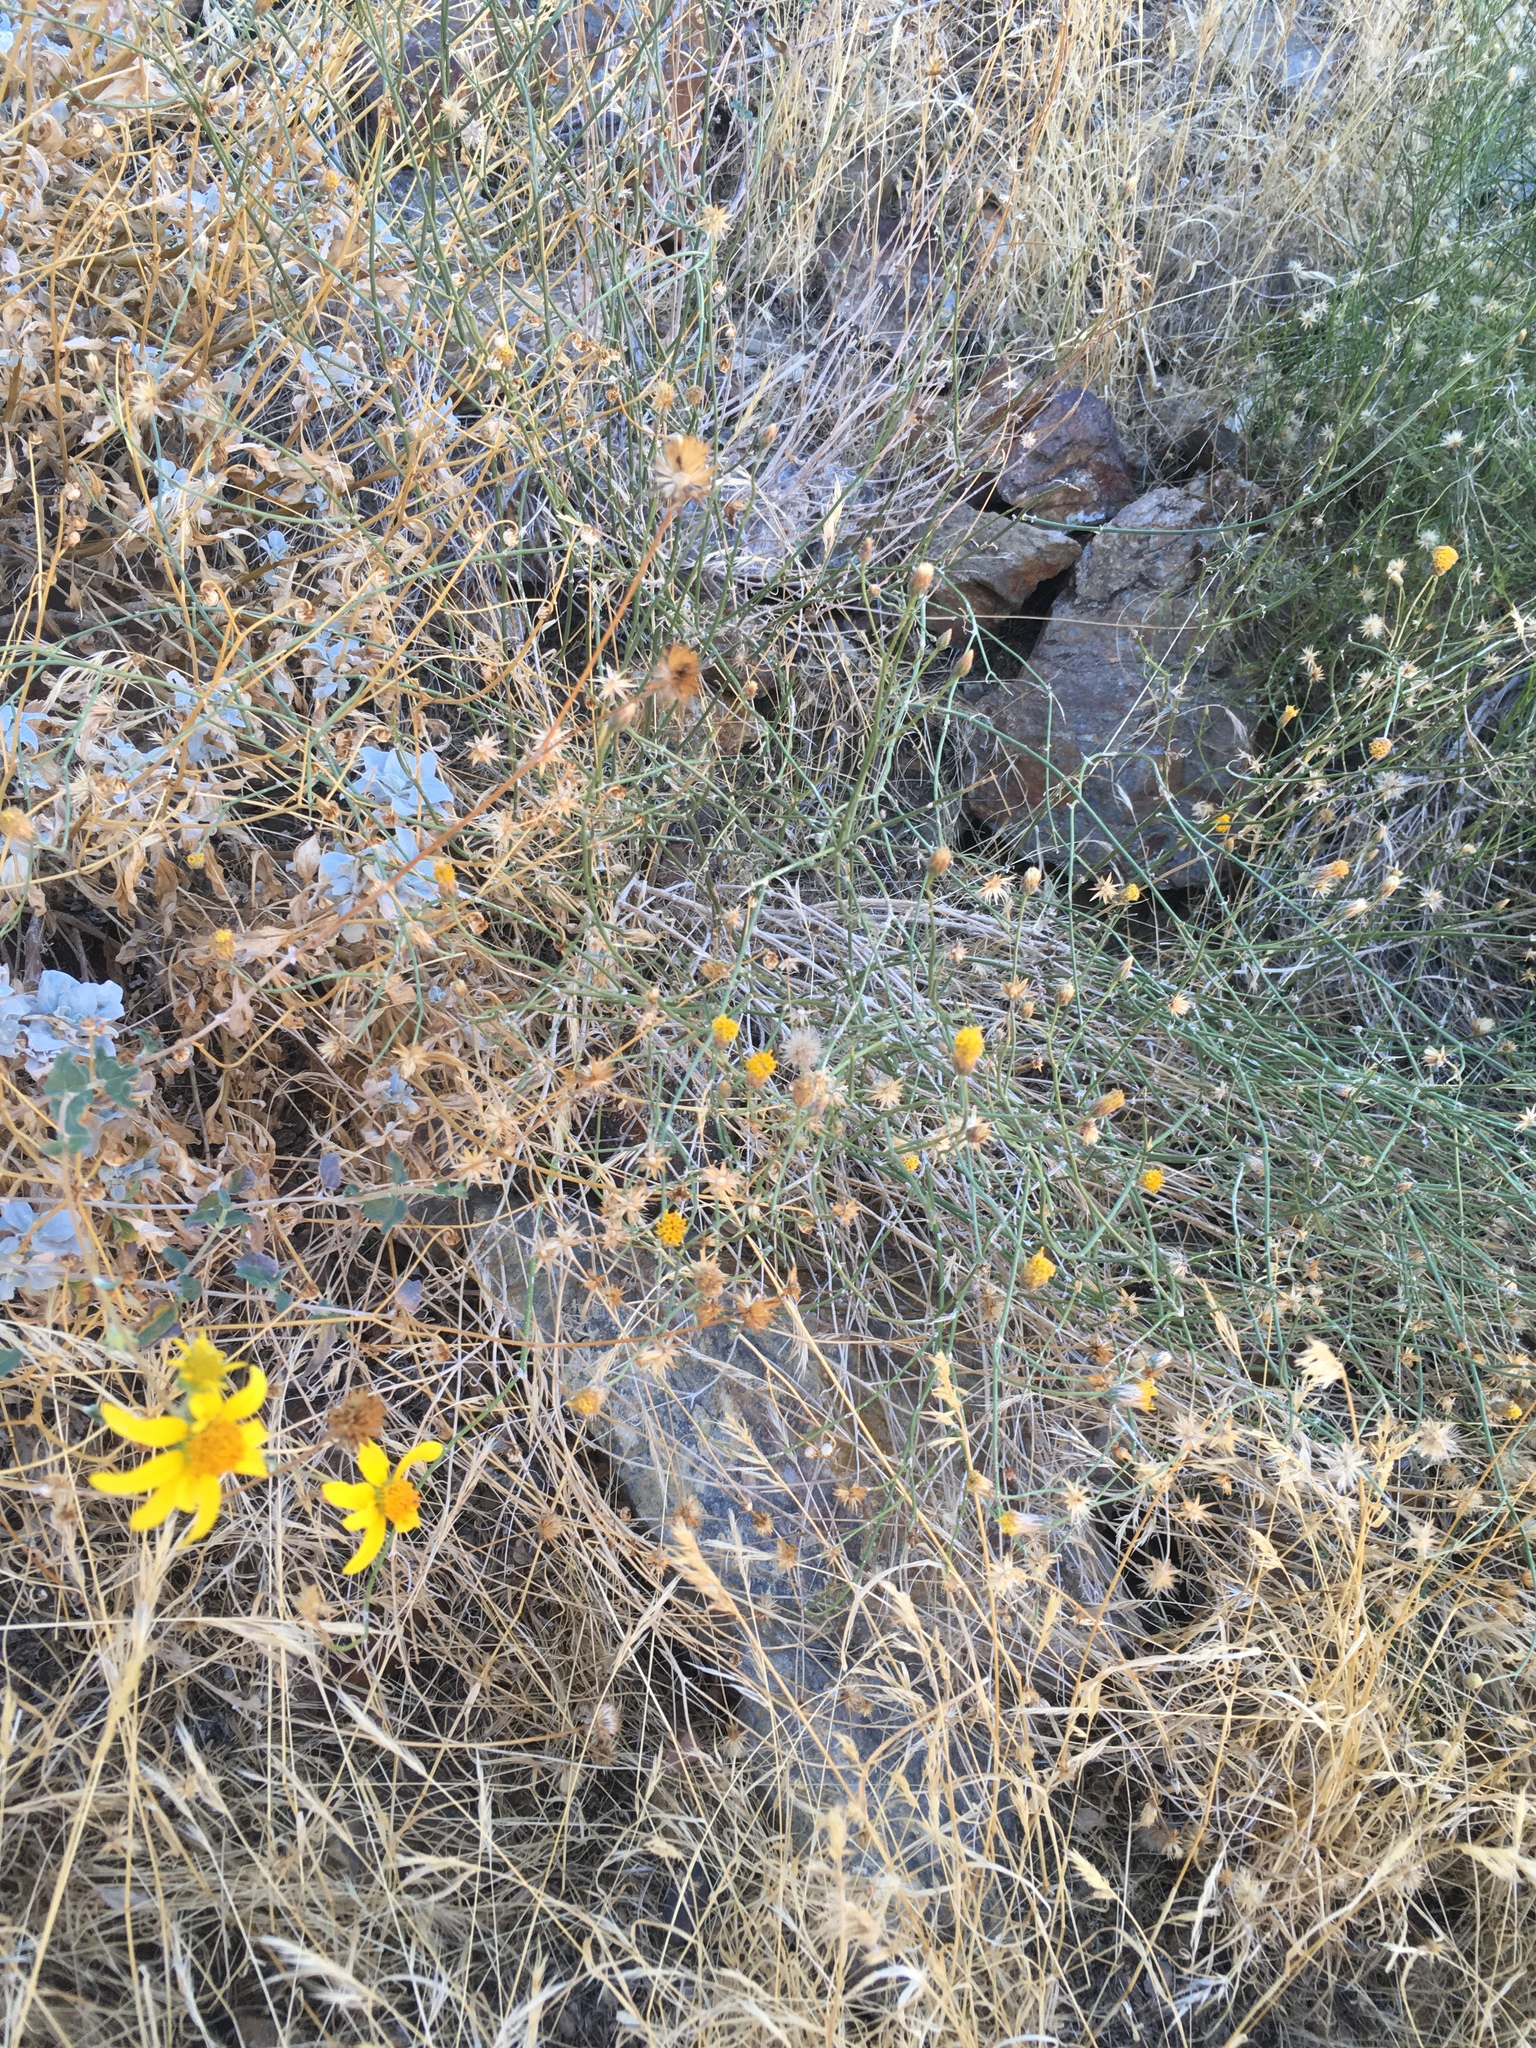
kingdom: Plantae
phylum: Tracheophyta
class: Magnoliopsida
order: Asterales
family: Asteraceae
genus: Bebbia
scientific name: Bebbia juncea
